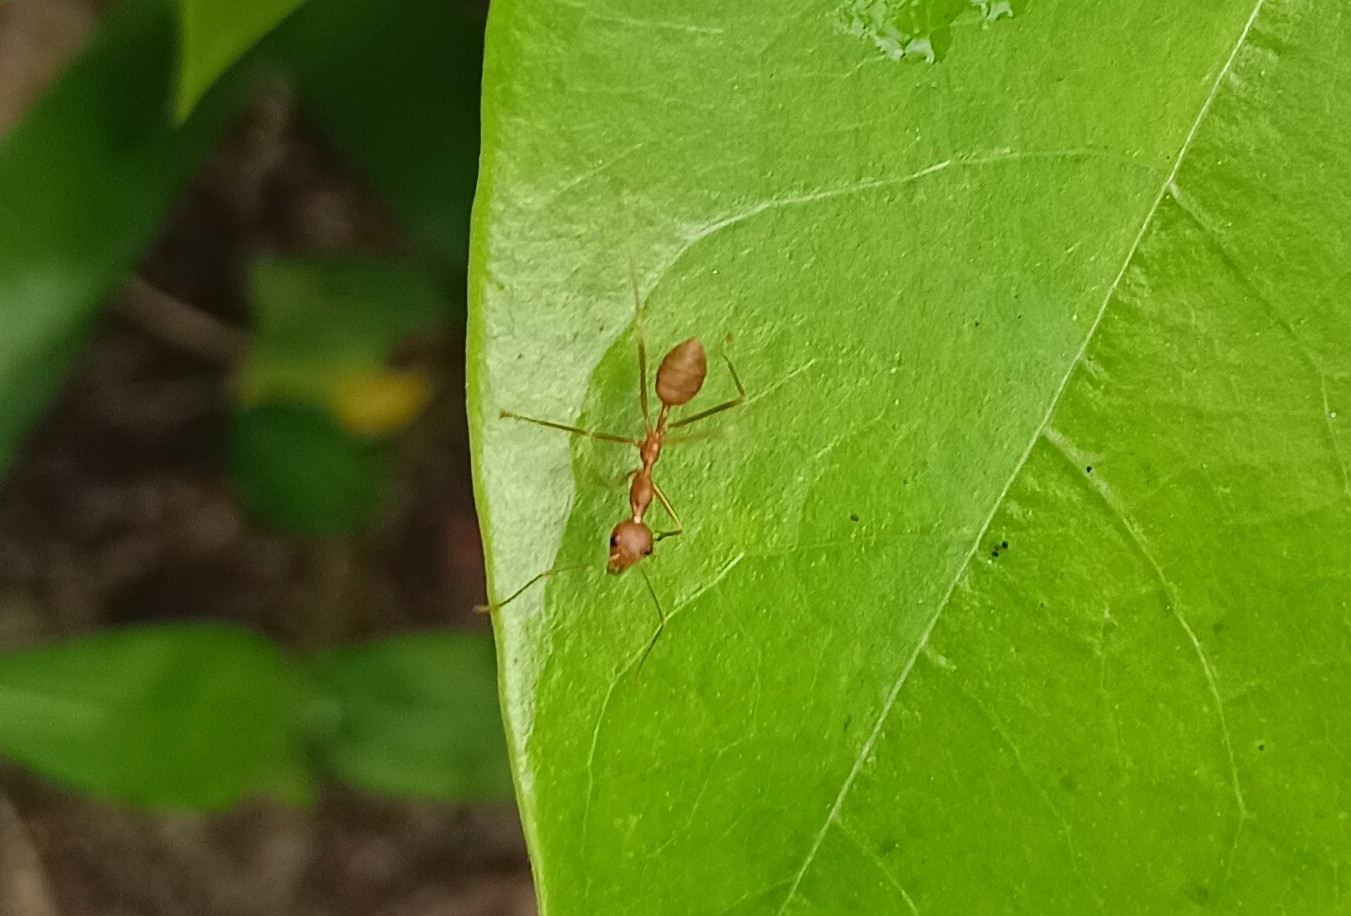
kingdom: Animalia
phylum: Arthropoda
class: Insecta
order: Hymenoptera
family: Formicidae
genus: Oecophylla
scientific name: Oecophylla smaragdina
